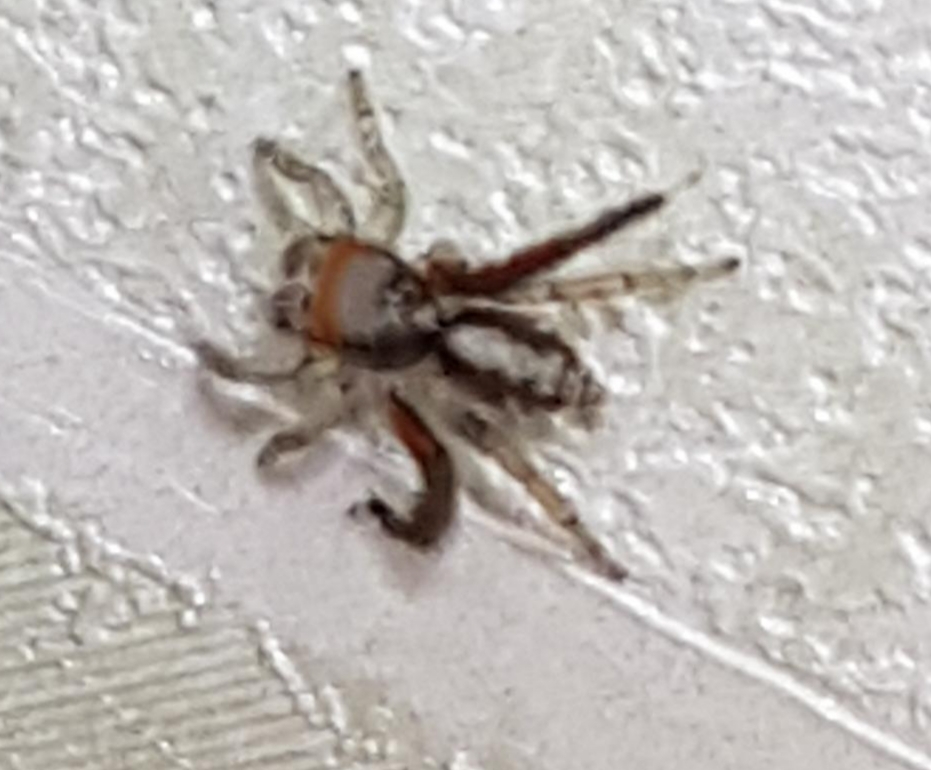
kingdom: Animalia
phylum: Arthropoda
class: Arachnida
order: Araneae
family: Salticidae
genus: Saitis
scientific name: Saitis barbipes
